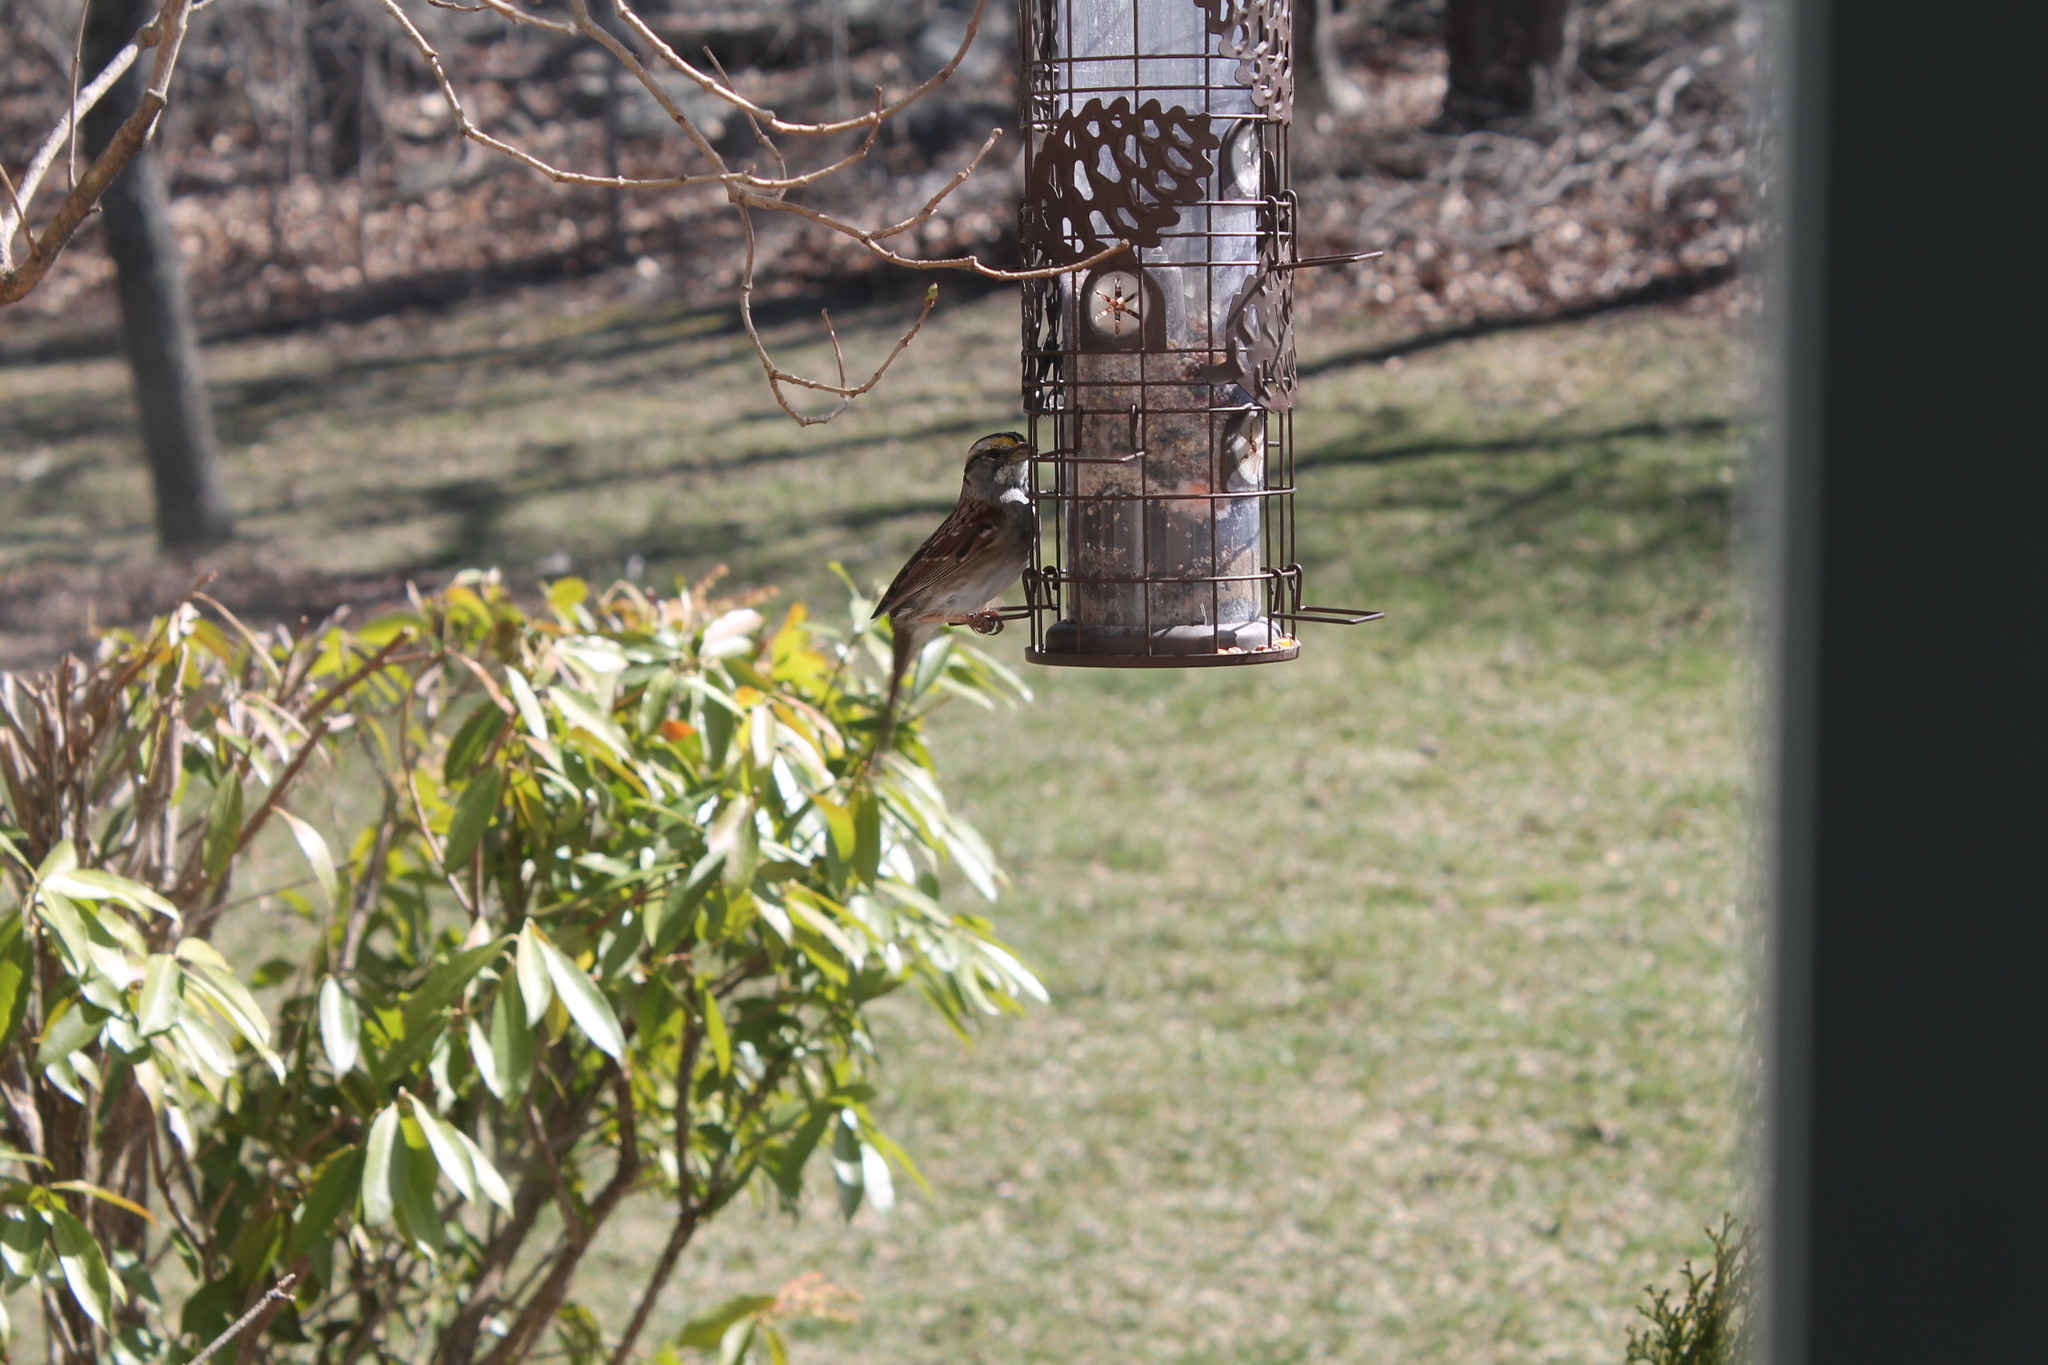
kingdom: Animalia
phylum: Chordata
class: Aves
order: Passeriformes
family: Passerellidae
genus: Zonotrichia
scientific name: Zonotrichia albicollis
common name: White-throated sparrow
